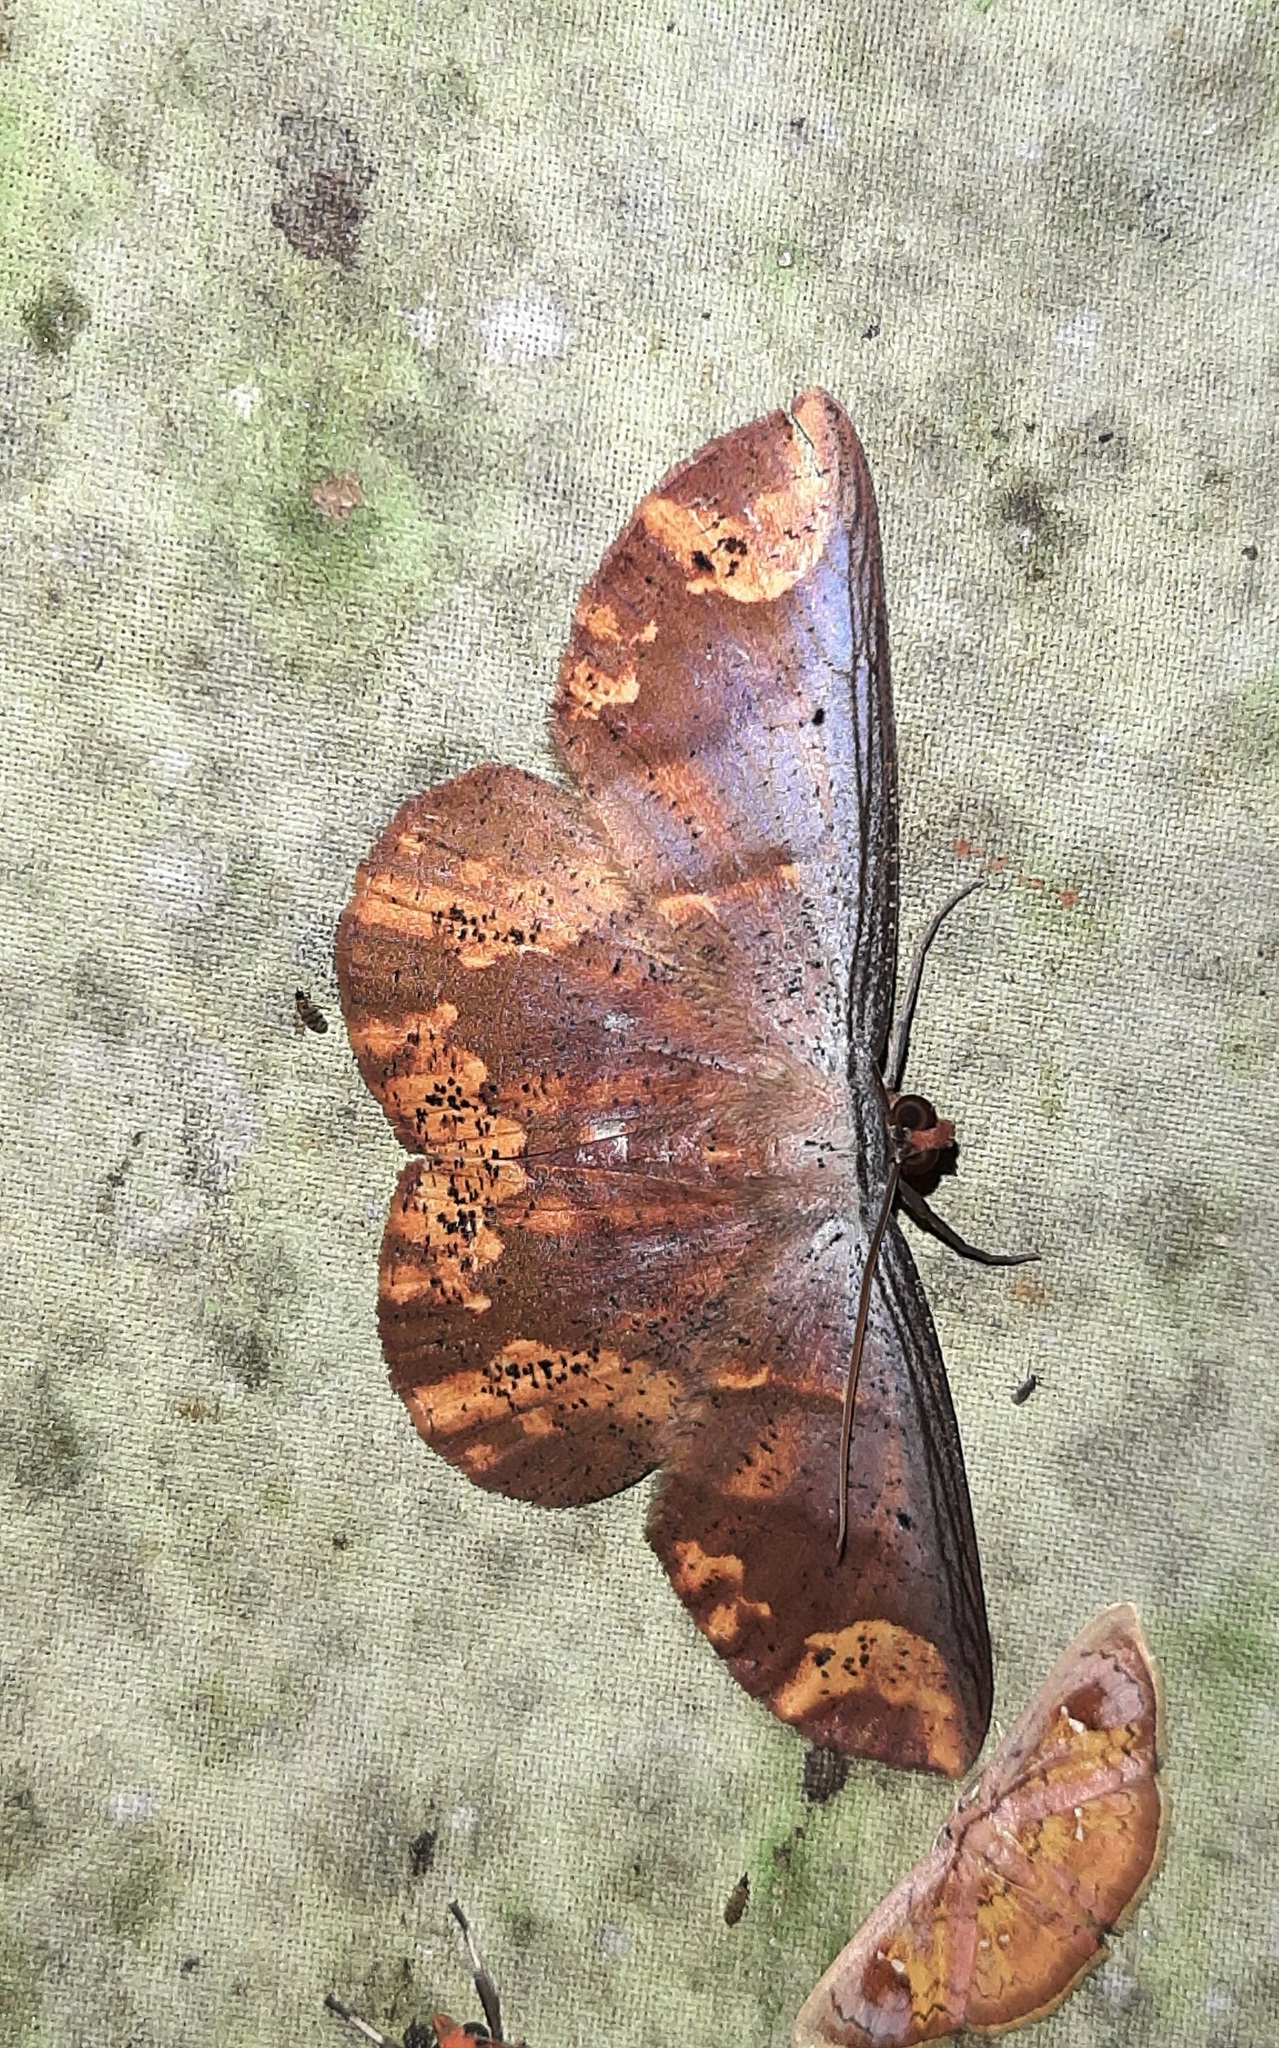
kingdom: Animalia
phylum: Arthropoda
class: Insecta
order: Lepidoptera
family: Geometridae
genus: Oenoptila
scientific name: Oenoptila violacearia
